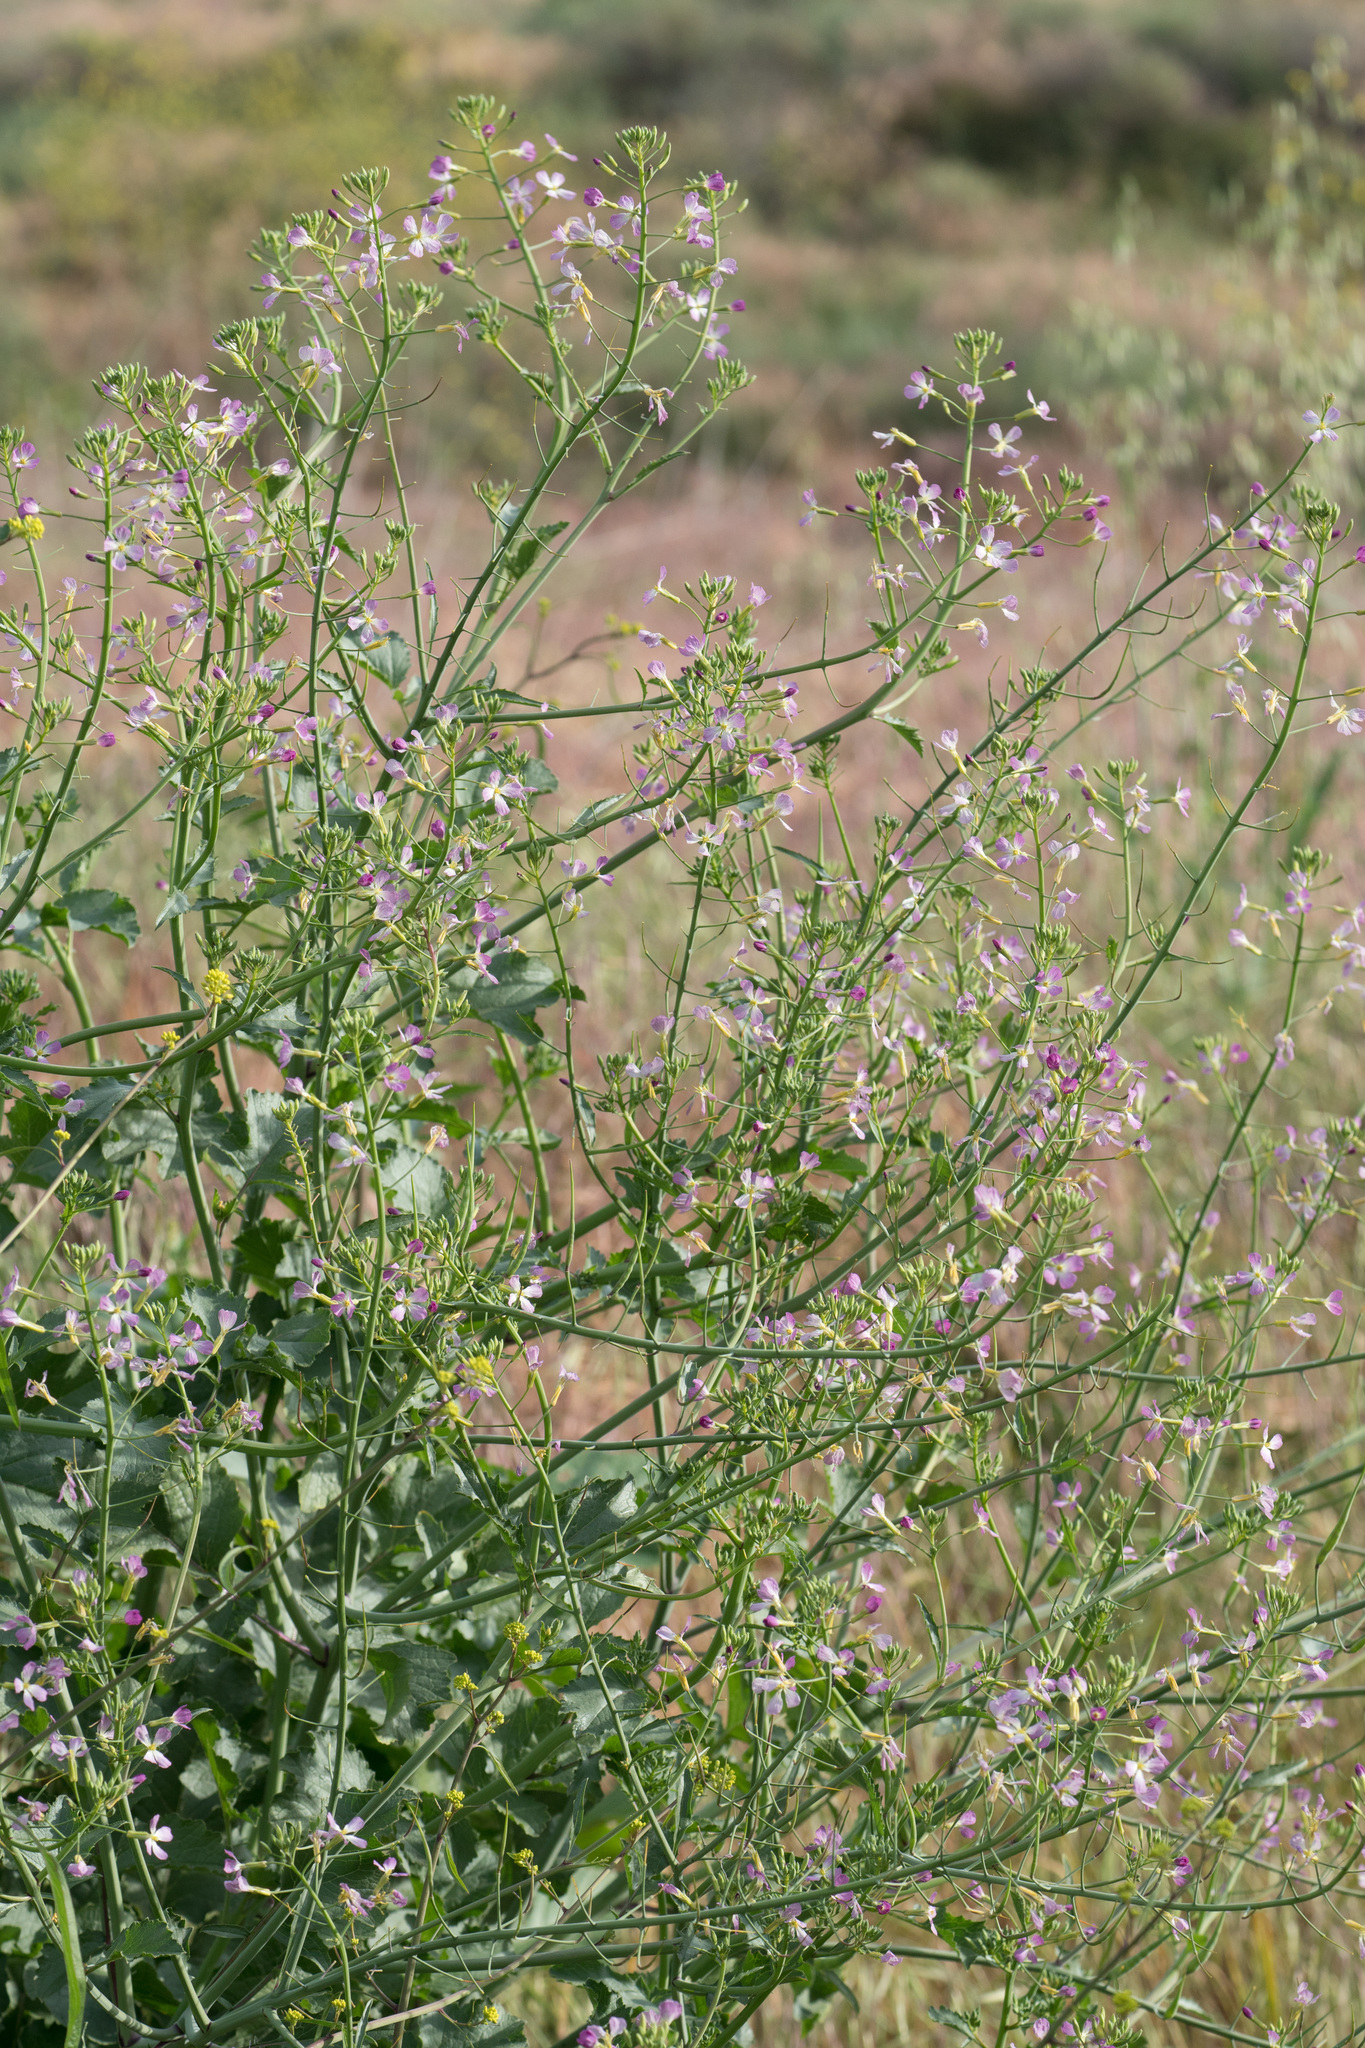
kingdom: Plantae
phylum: Tracheophyta
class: Magnoliopsida
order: Brassicales
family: Brassicaceae
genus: Raphanus
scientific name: Raphanus sativus
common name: Cultivated radish
